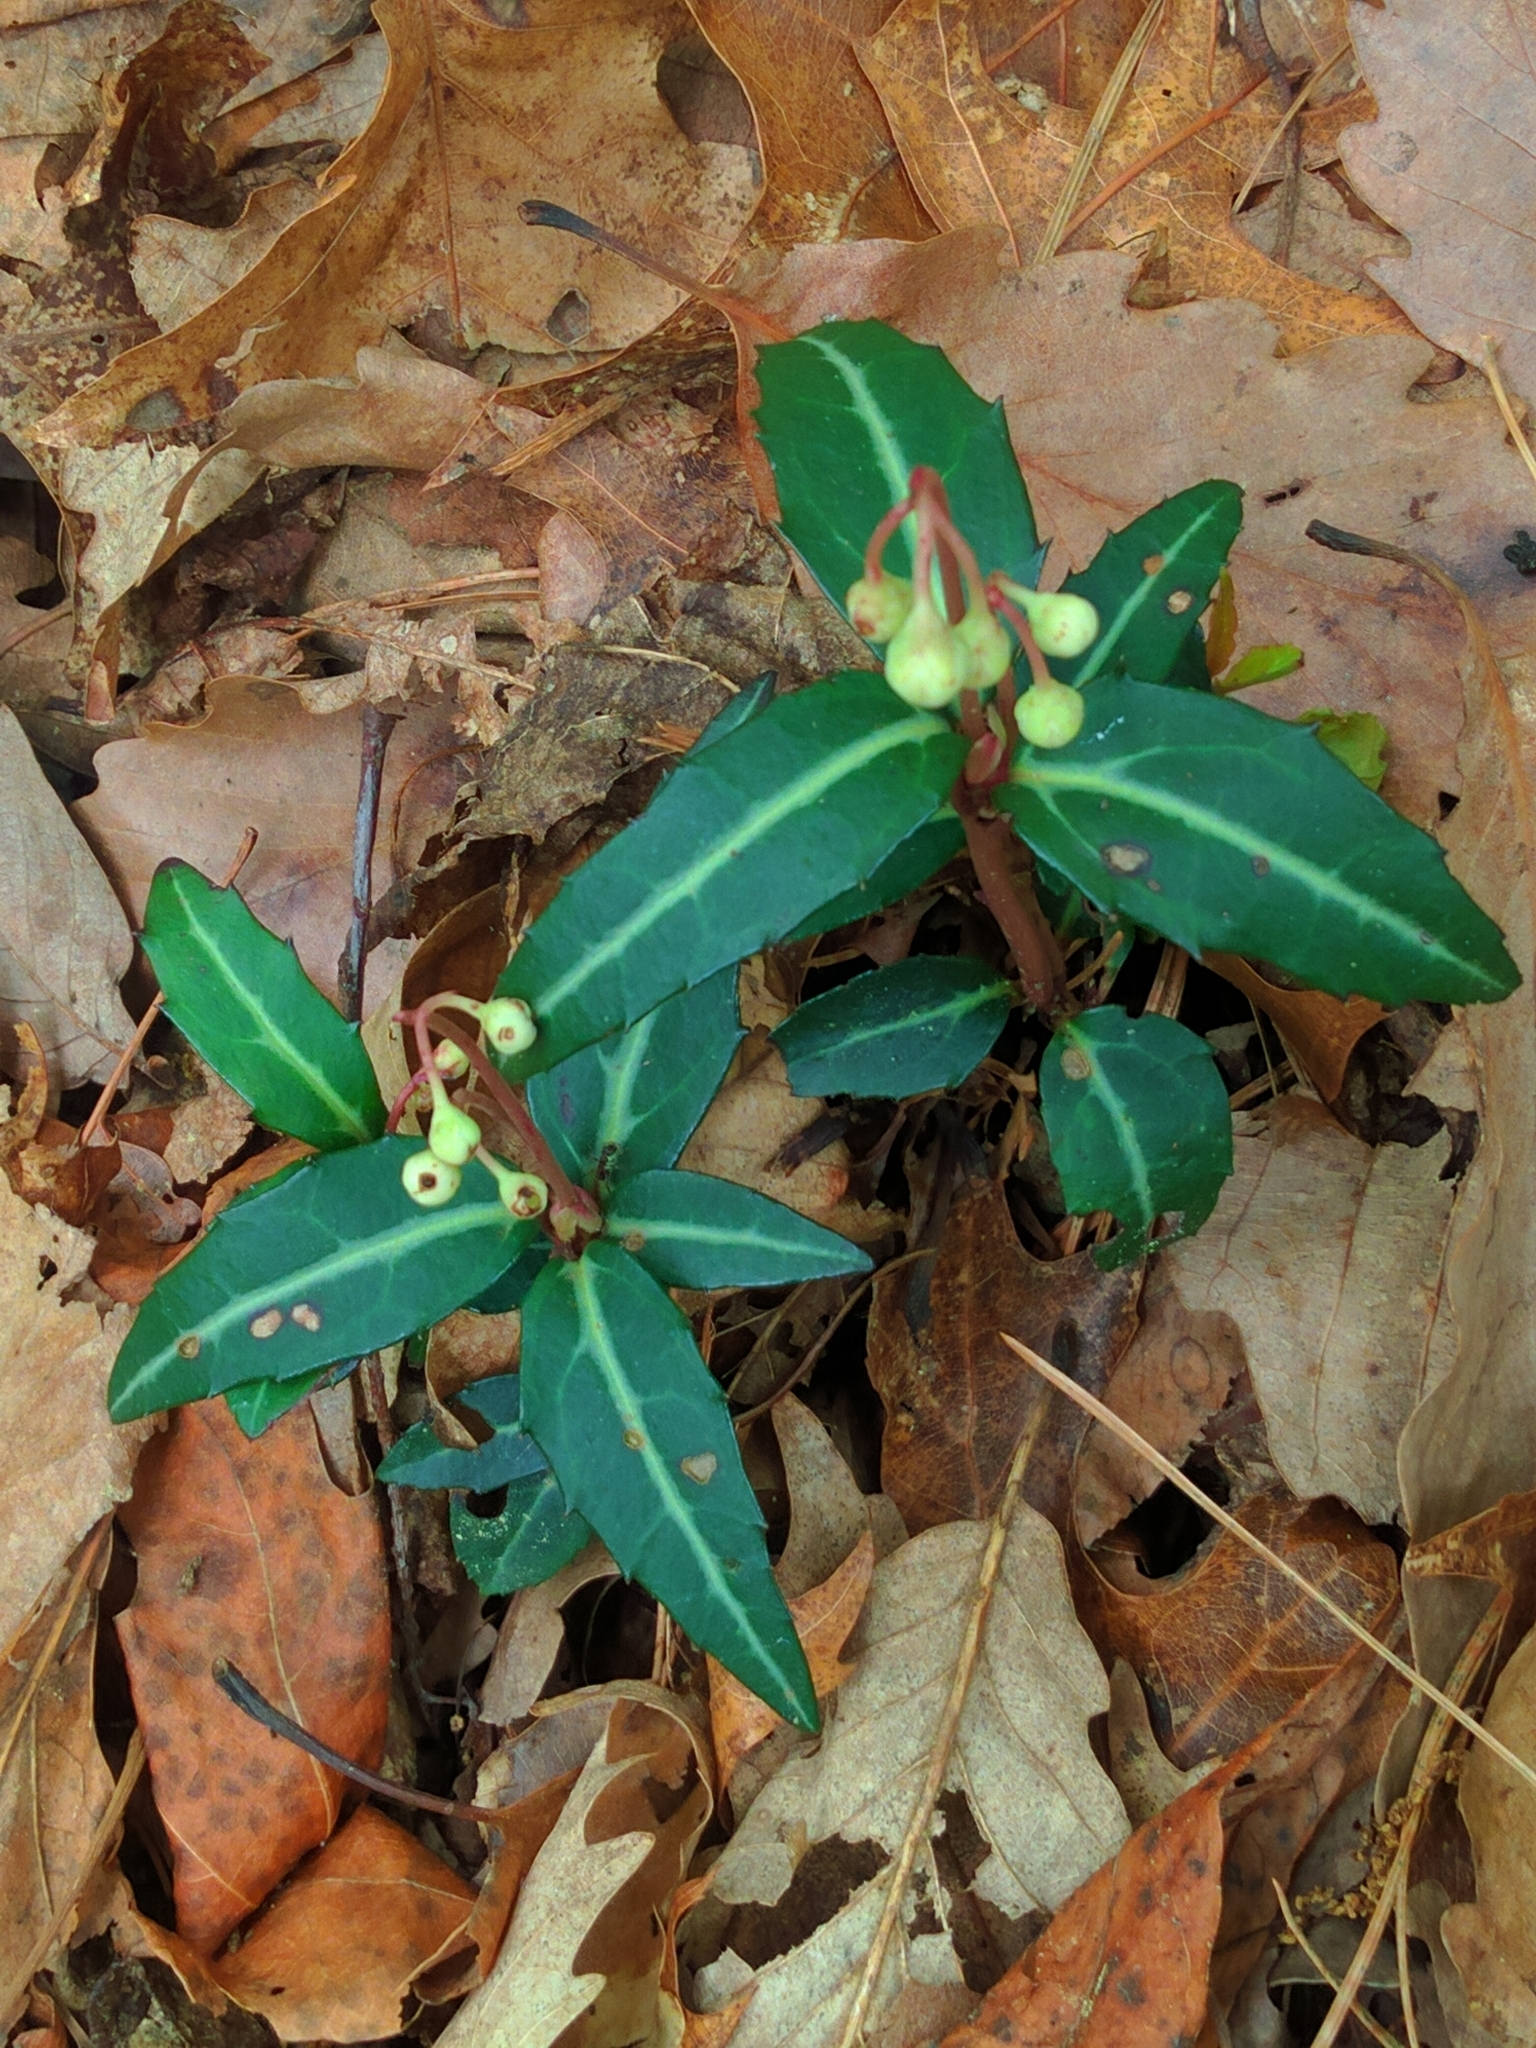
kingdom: Plantae
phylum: Tracheophyta
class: Magnoliopsida
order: Ericales
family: Ericaceae
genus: Chimaphila
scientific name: Chimaphila maculata
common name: Spotted pipsissewa
